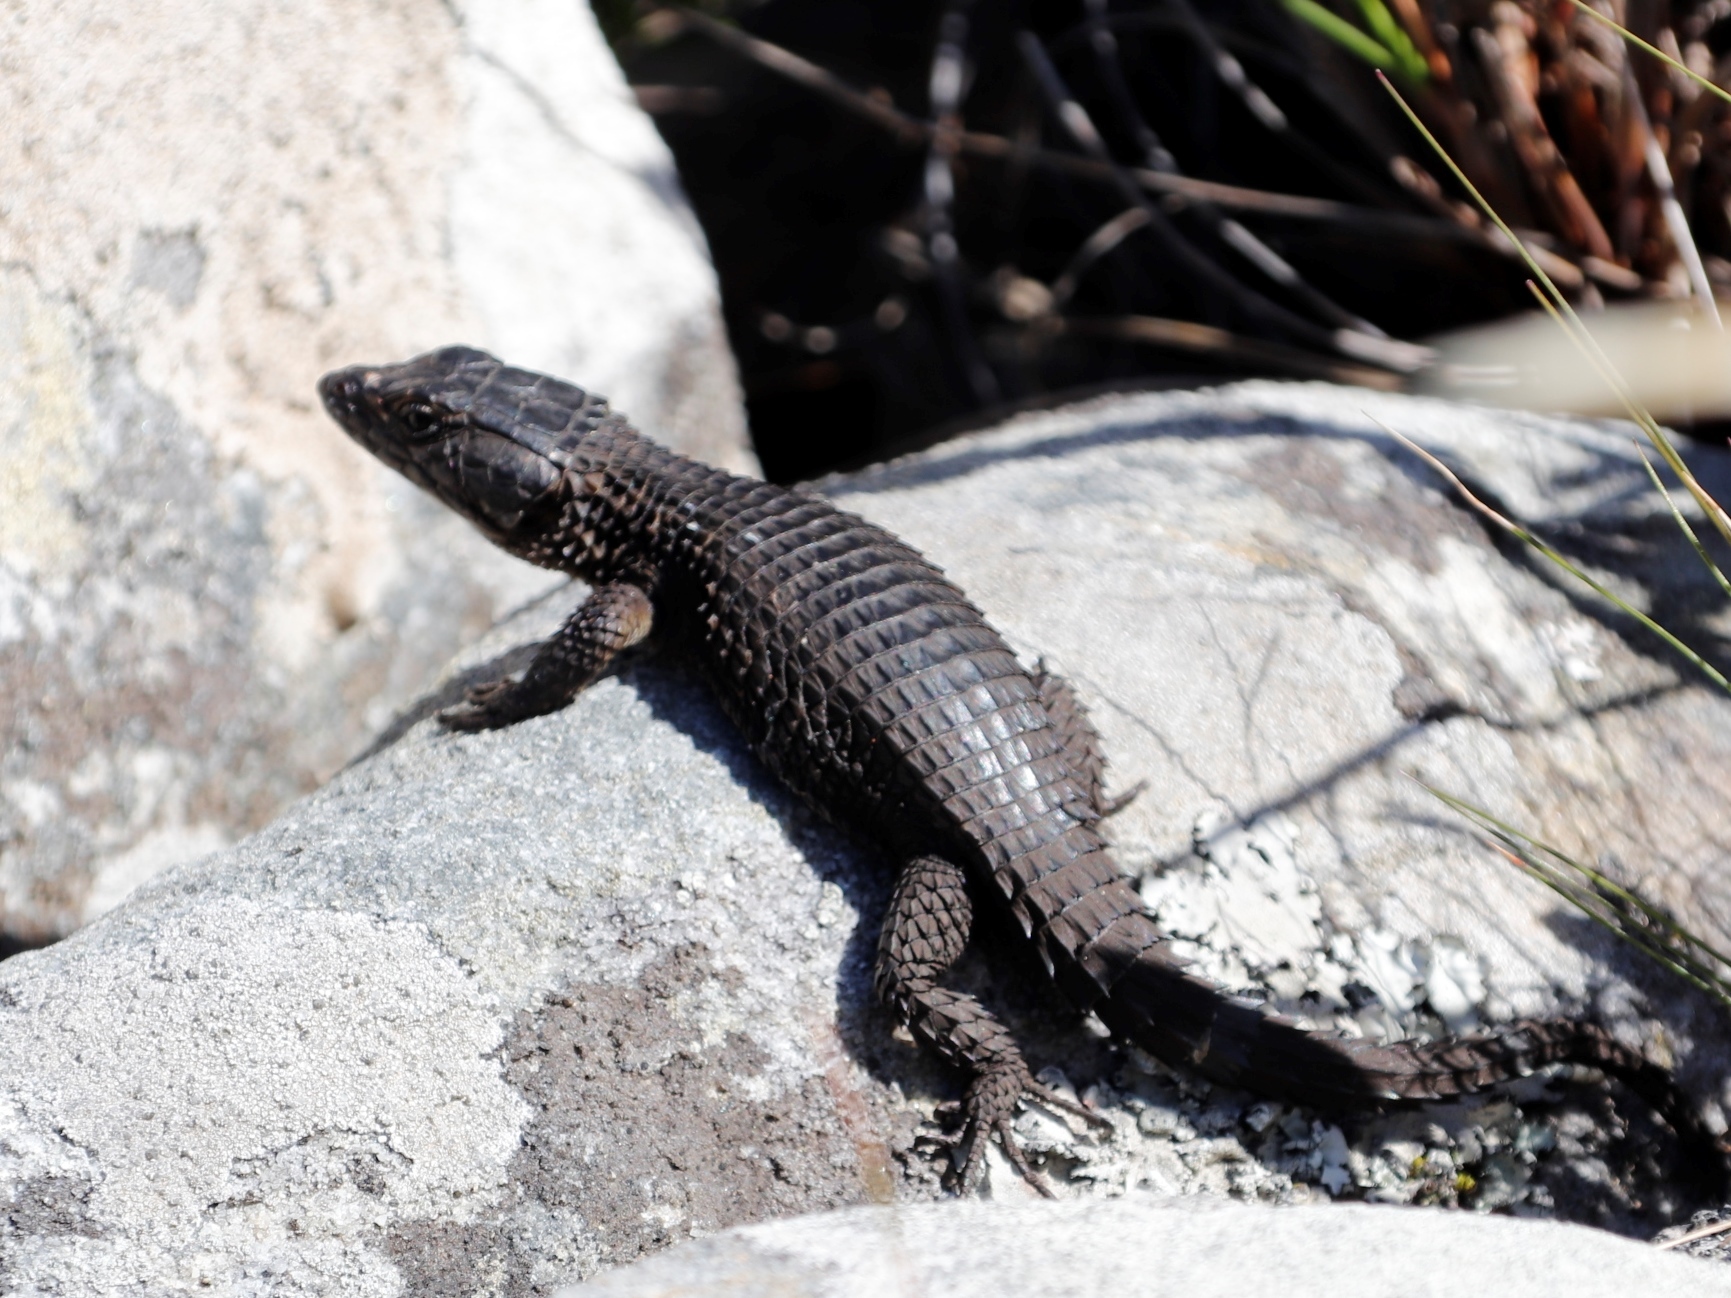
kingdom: Animalia
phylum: Chordata
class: Squamata
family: Cordylidae
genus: Cordylus
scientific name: Cordylus niger
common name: Black girdled lizard
